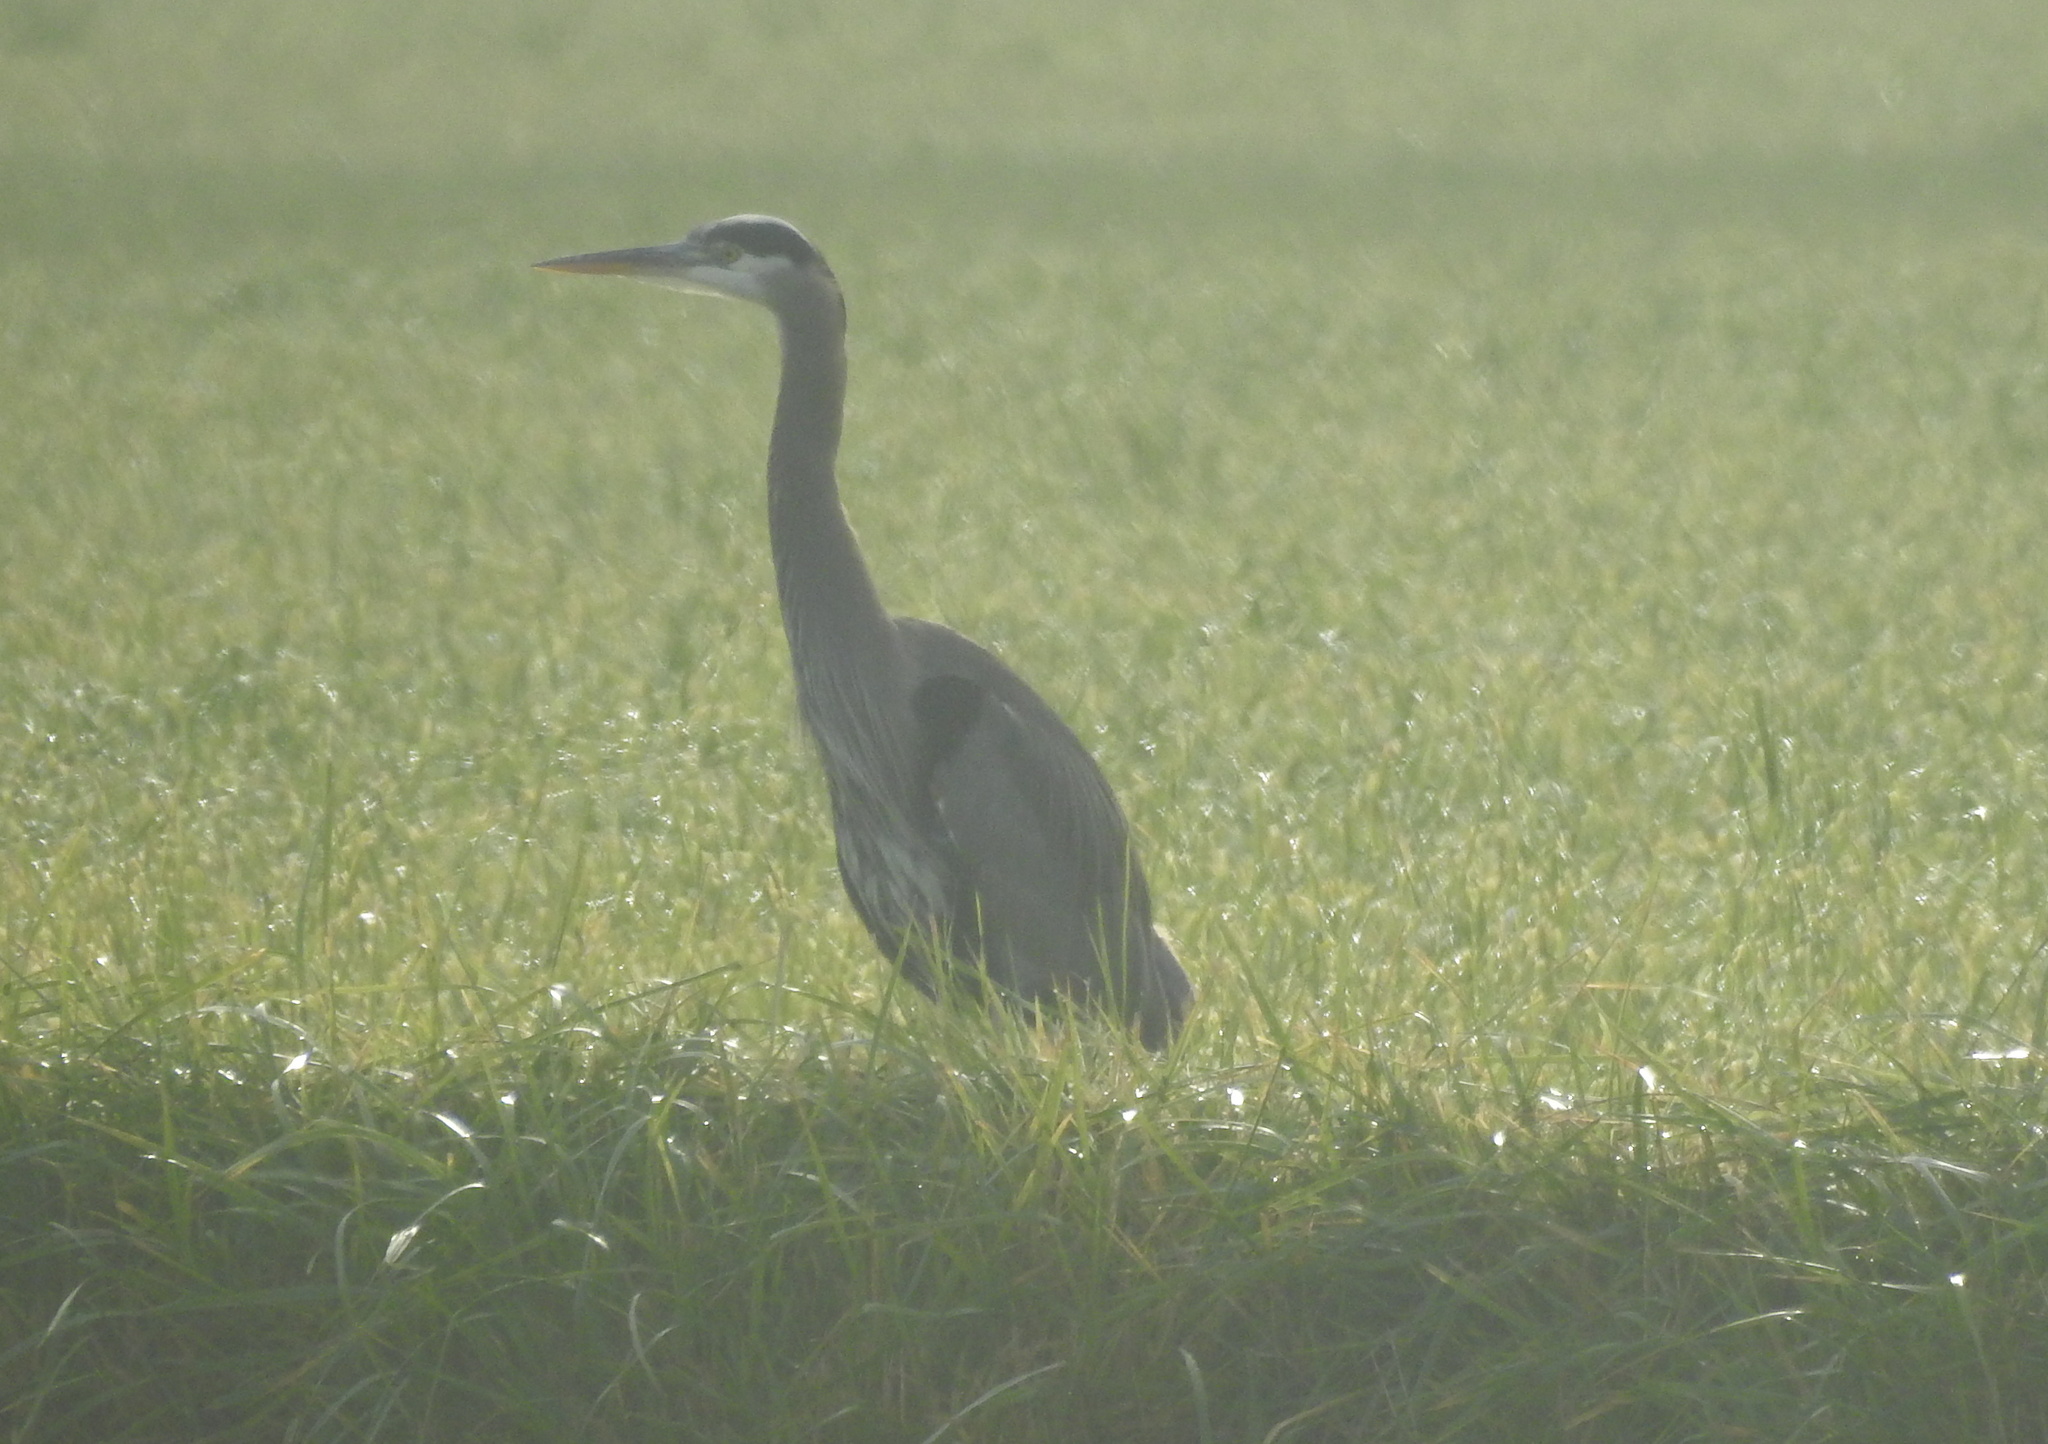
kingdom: Animalia
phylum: Chordata
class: Aves
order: Pelecaniformes
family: Ardeidae
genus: Ardea
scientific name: Ardea herodias
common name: Great blue heron
